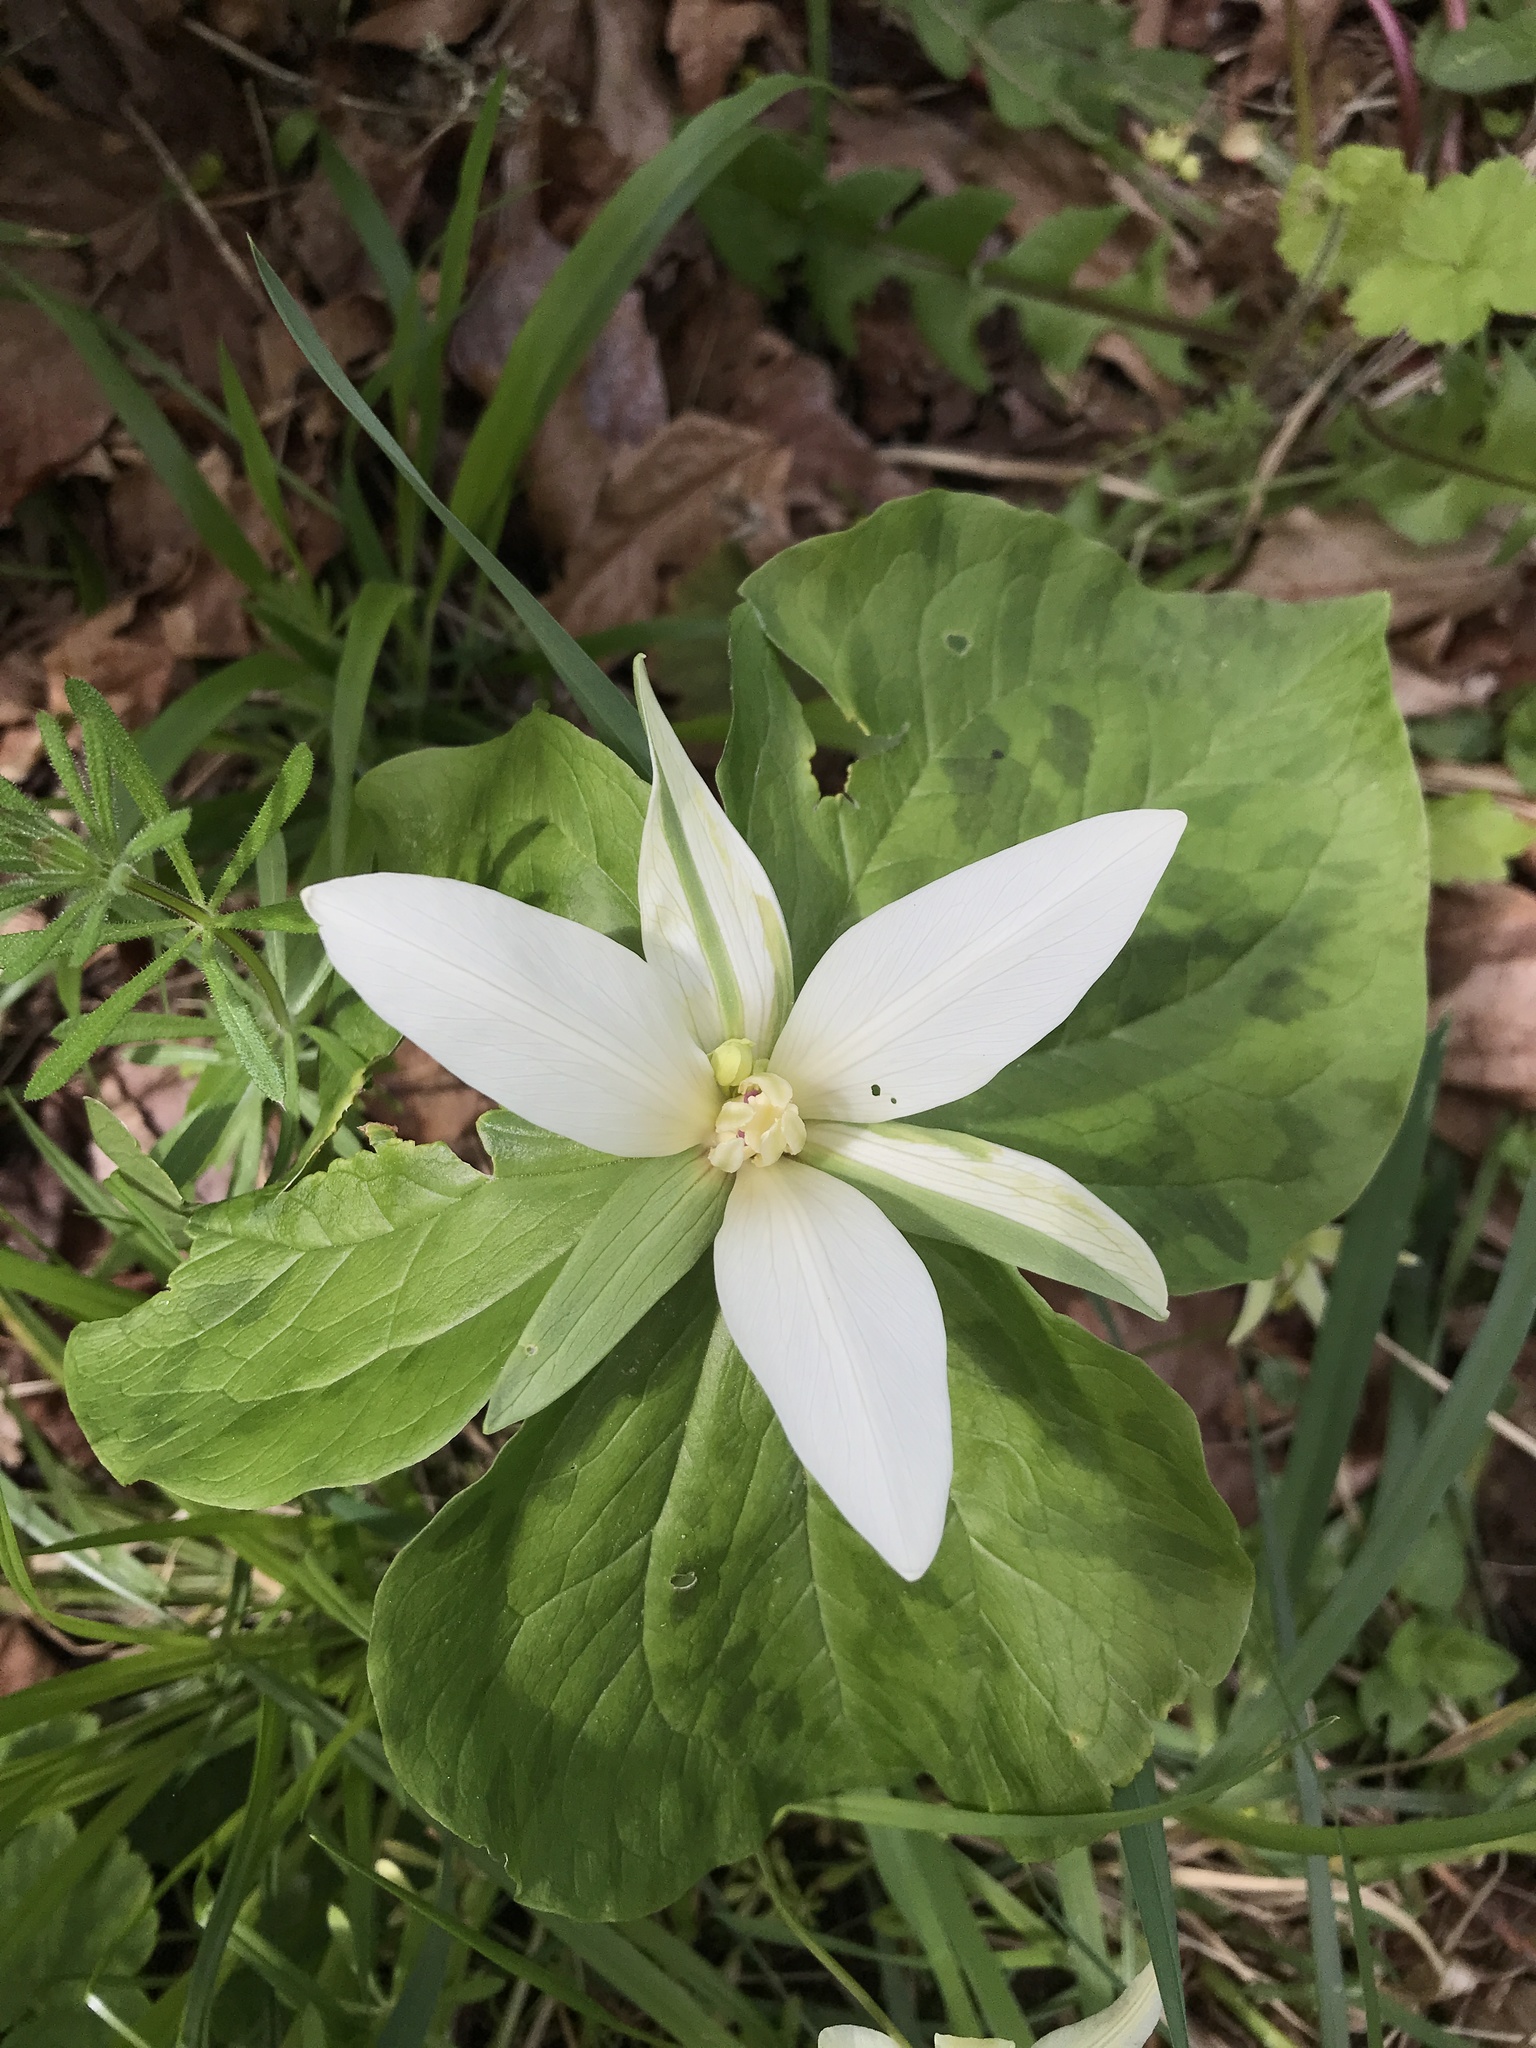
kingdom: Plantae
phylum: Tracheophyta
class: Liliopsida
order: Liliales
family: Melanthiaceae
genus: Trillium
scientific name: Trillium albidum
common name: Freeman's trillium
